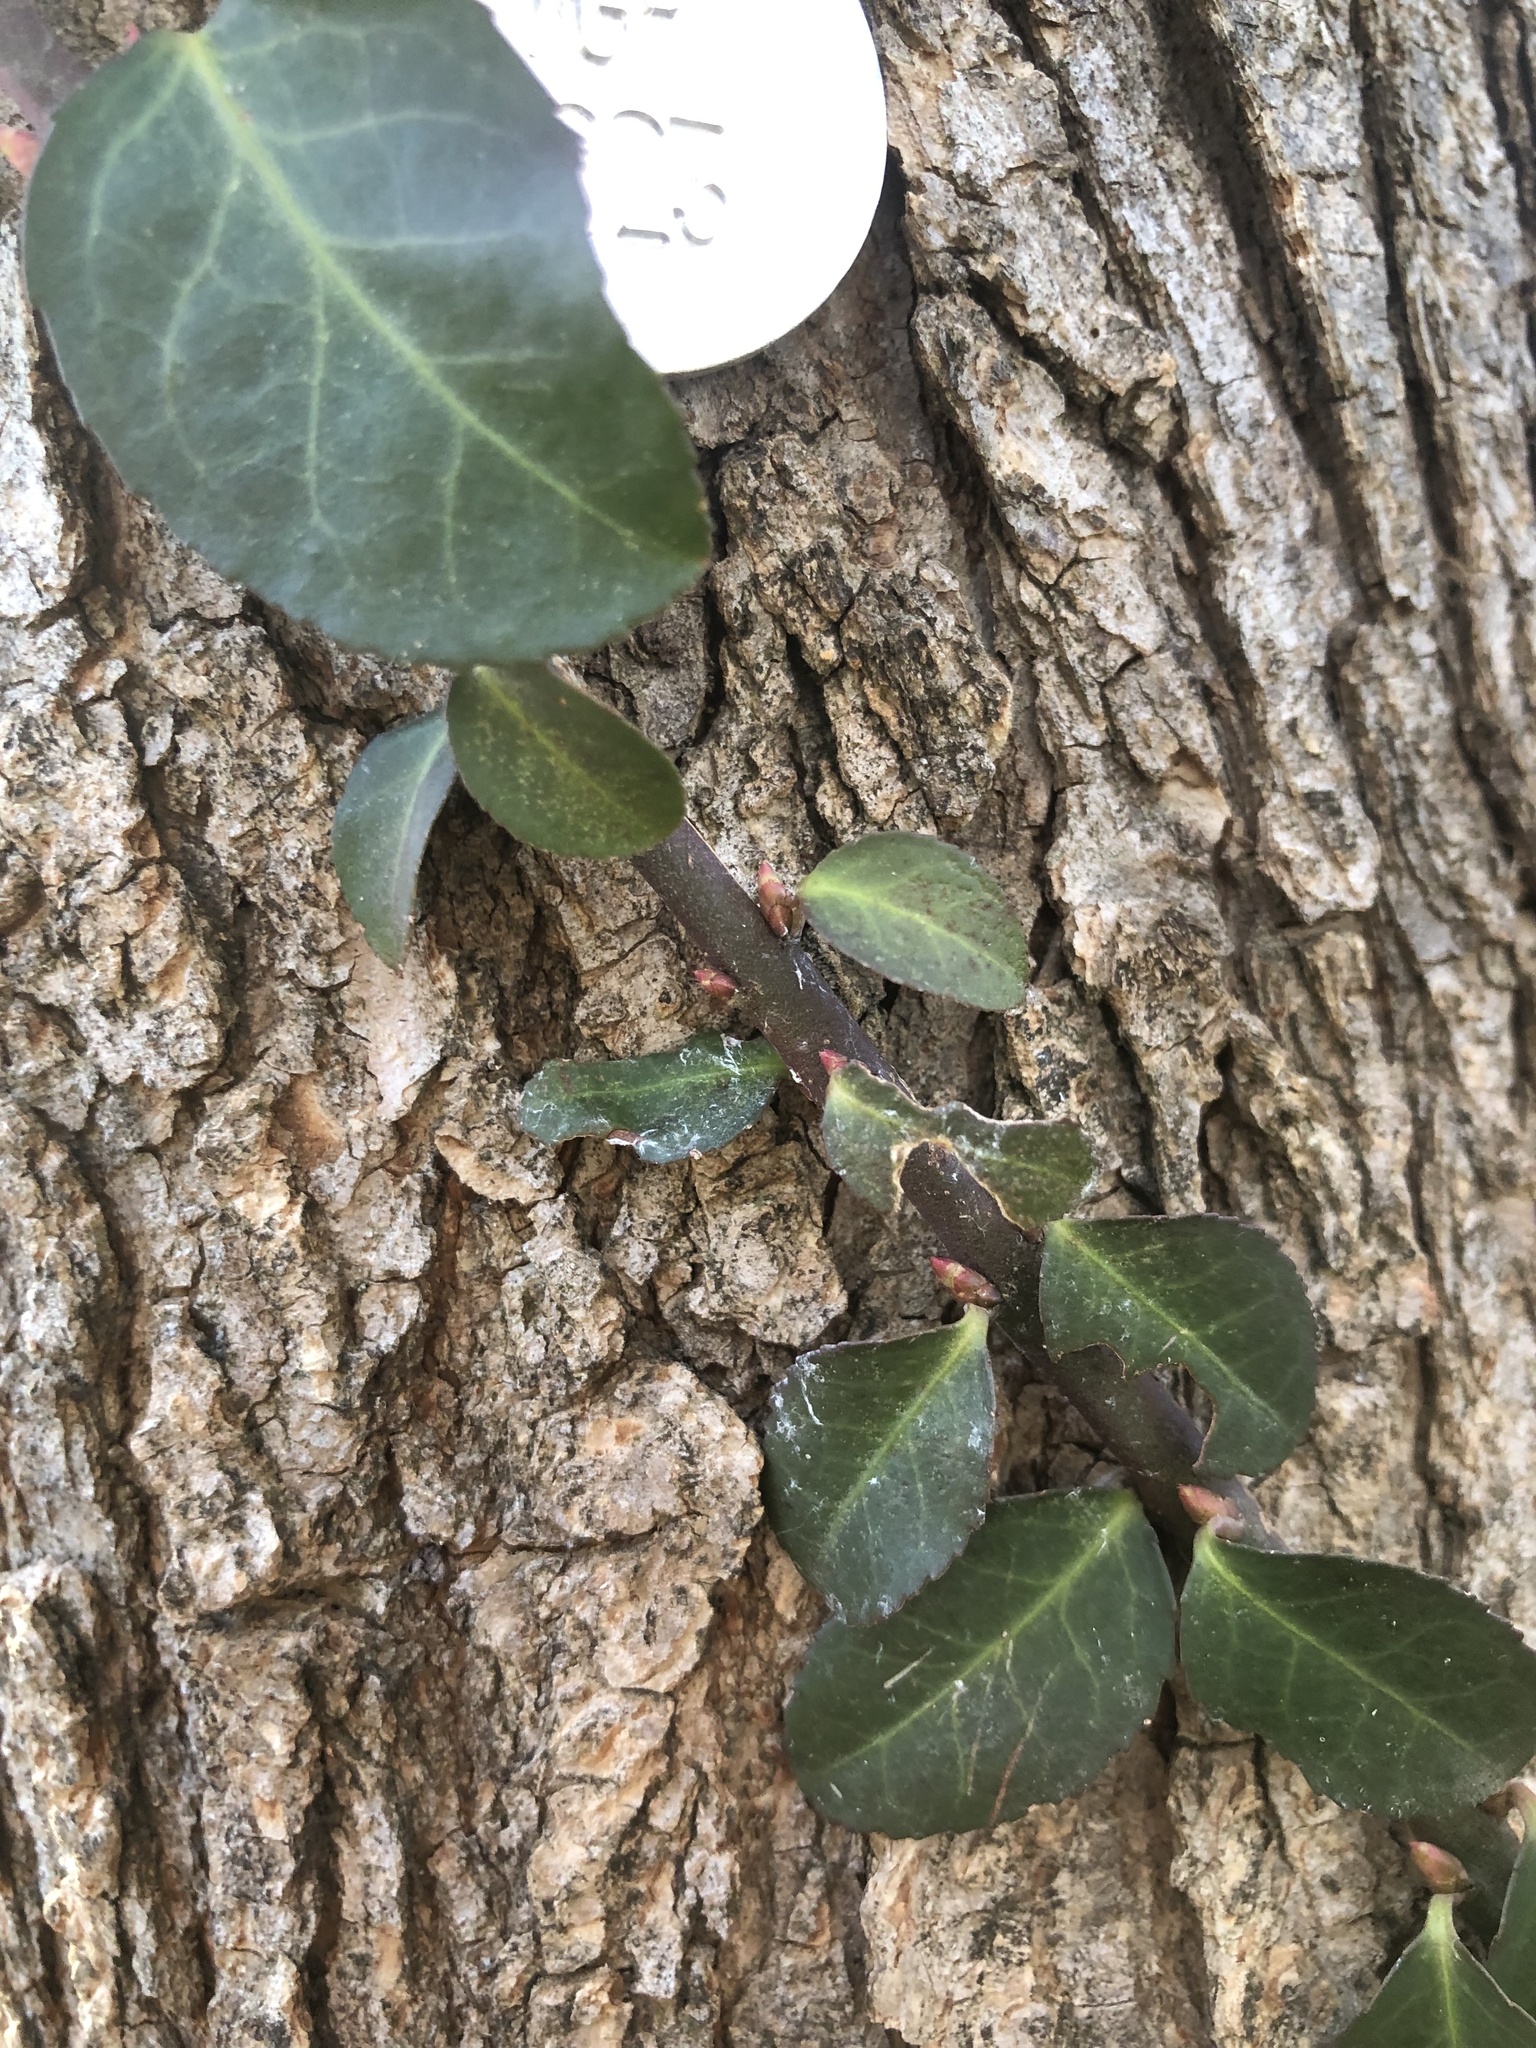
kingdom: Plantae
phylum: Tracheophyta
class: Magnoliopsida
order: Celastrales
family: Celastraceae
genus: Euonymus
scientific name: Euonymus fortunei
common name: Climbing euonymus
